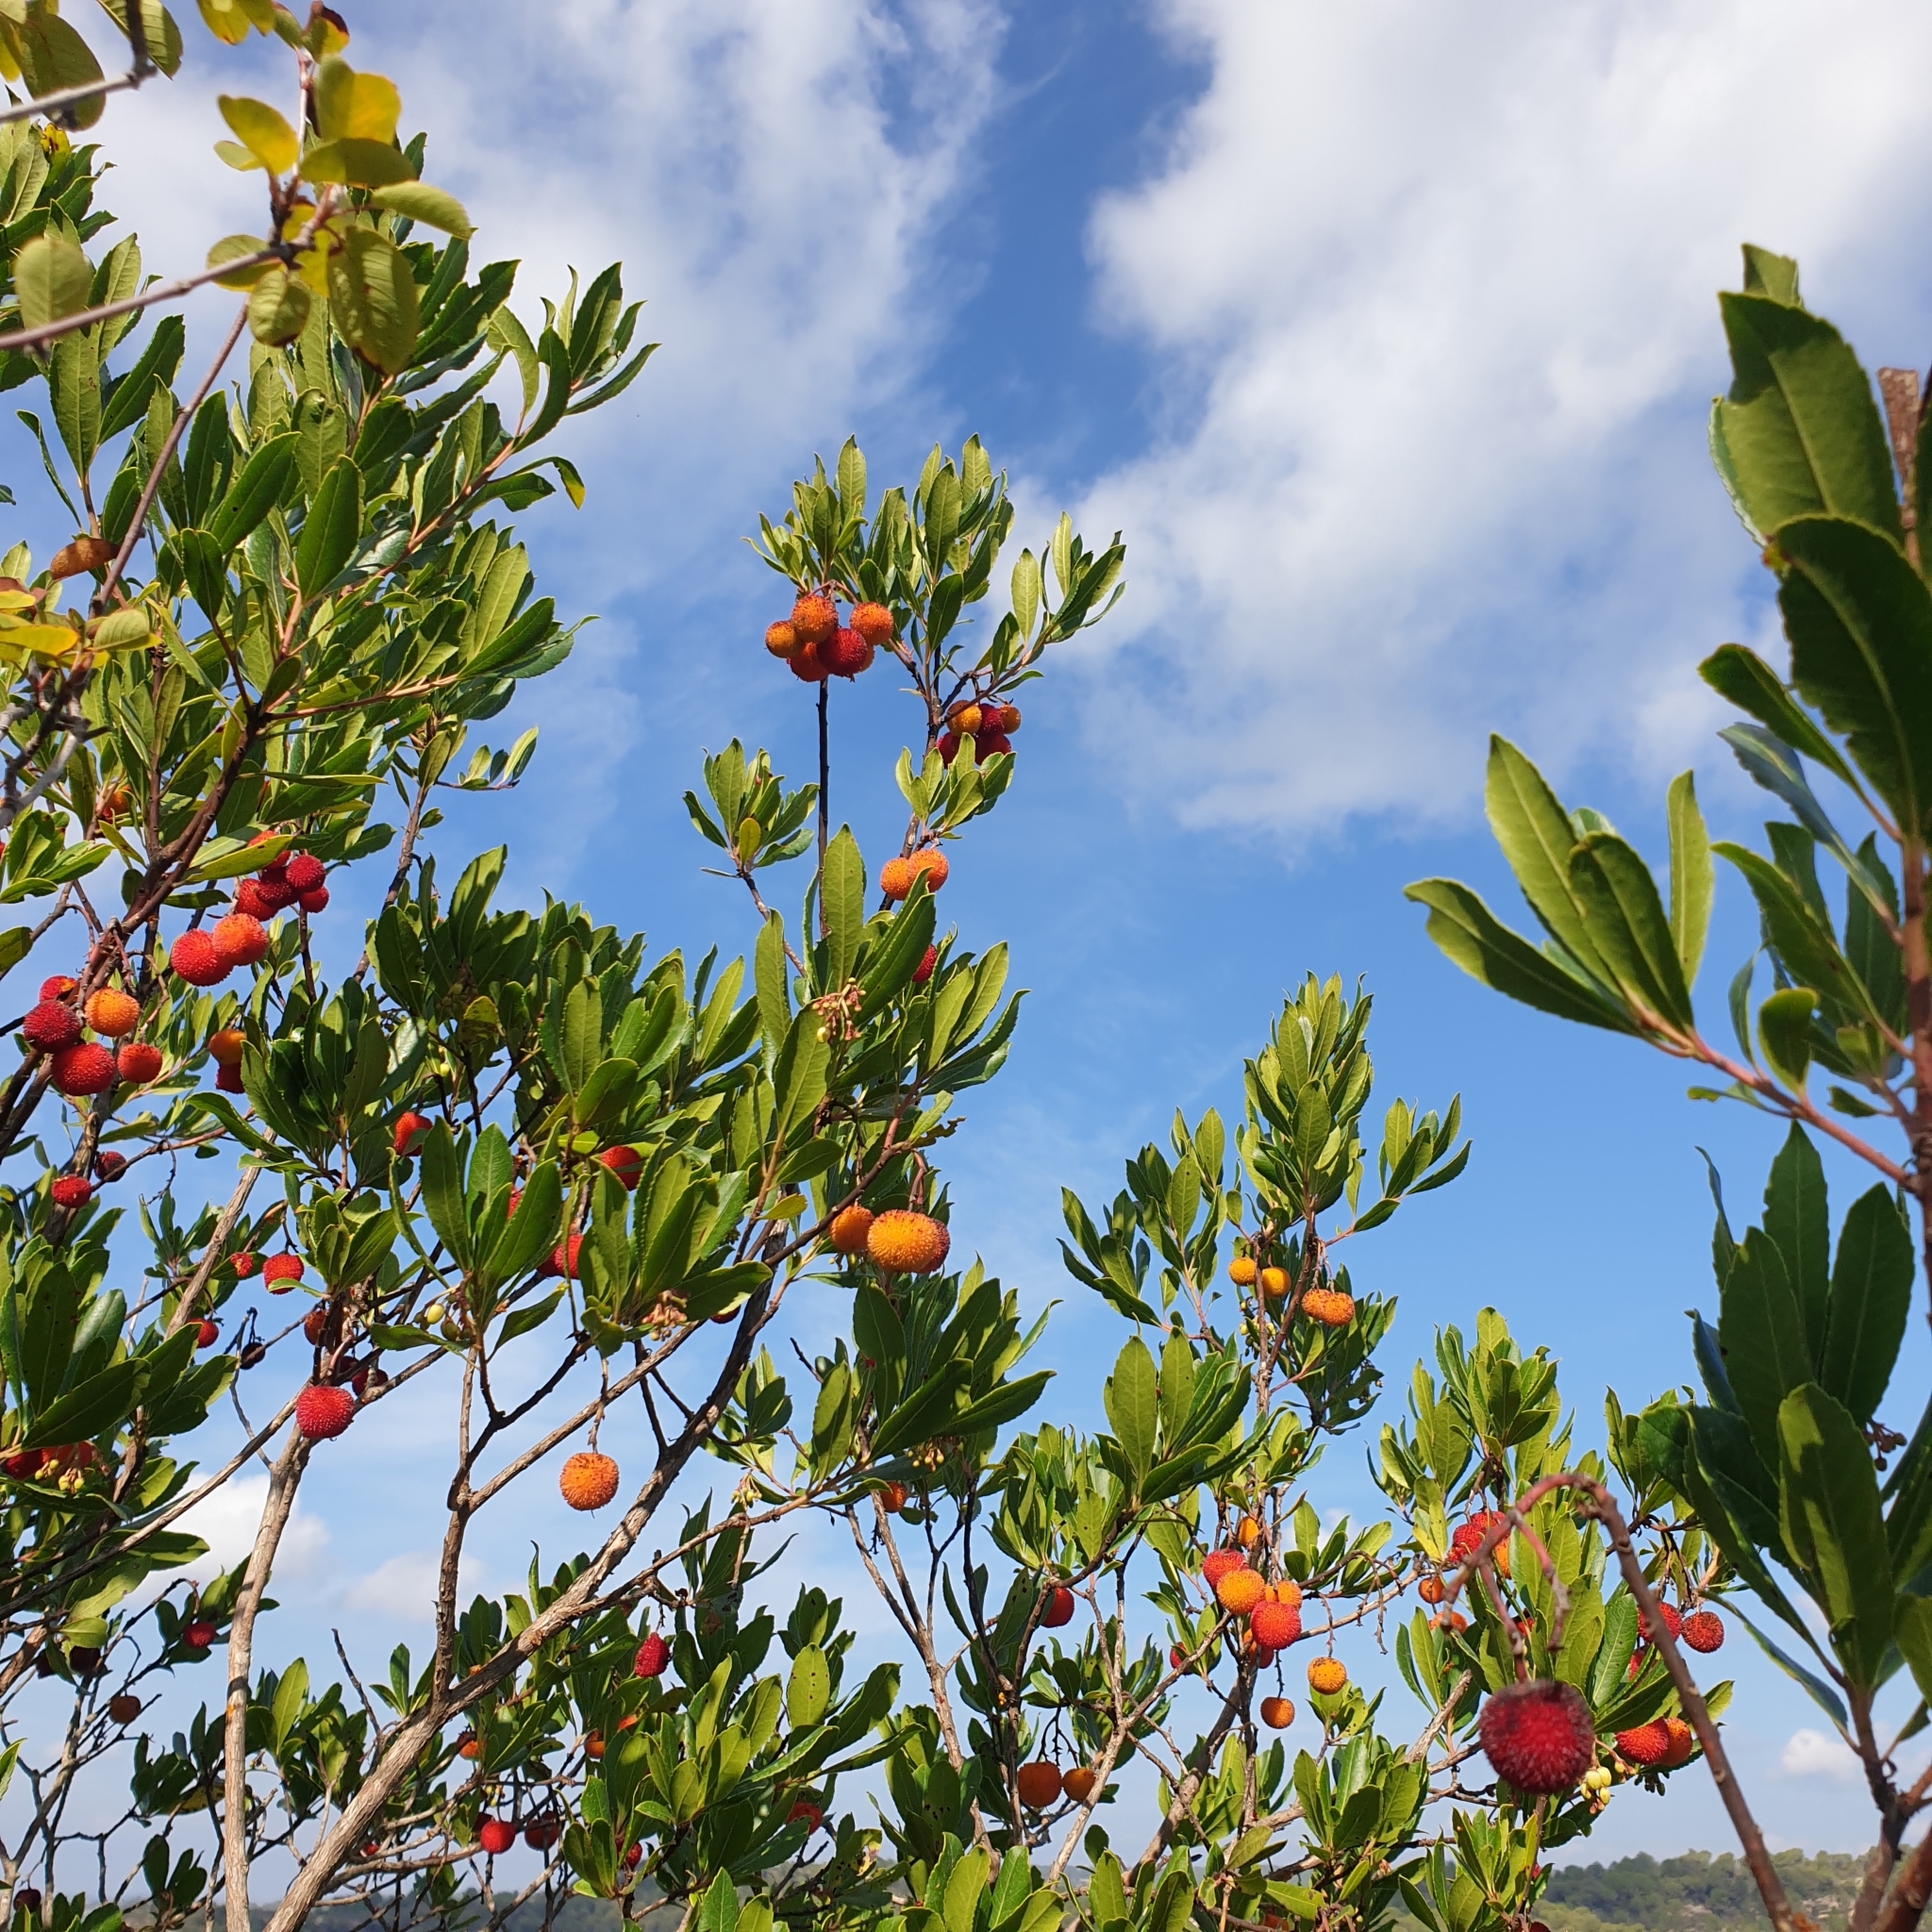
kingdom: Plantae
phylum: Tracheophyta
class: Magnoliopsida
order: Ericales
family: Ericaceae
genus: Arbutus
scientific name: Arbutus unedo
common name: Strawberry-tree
